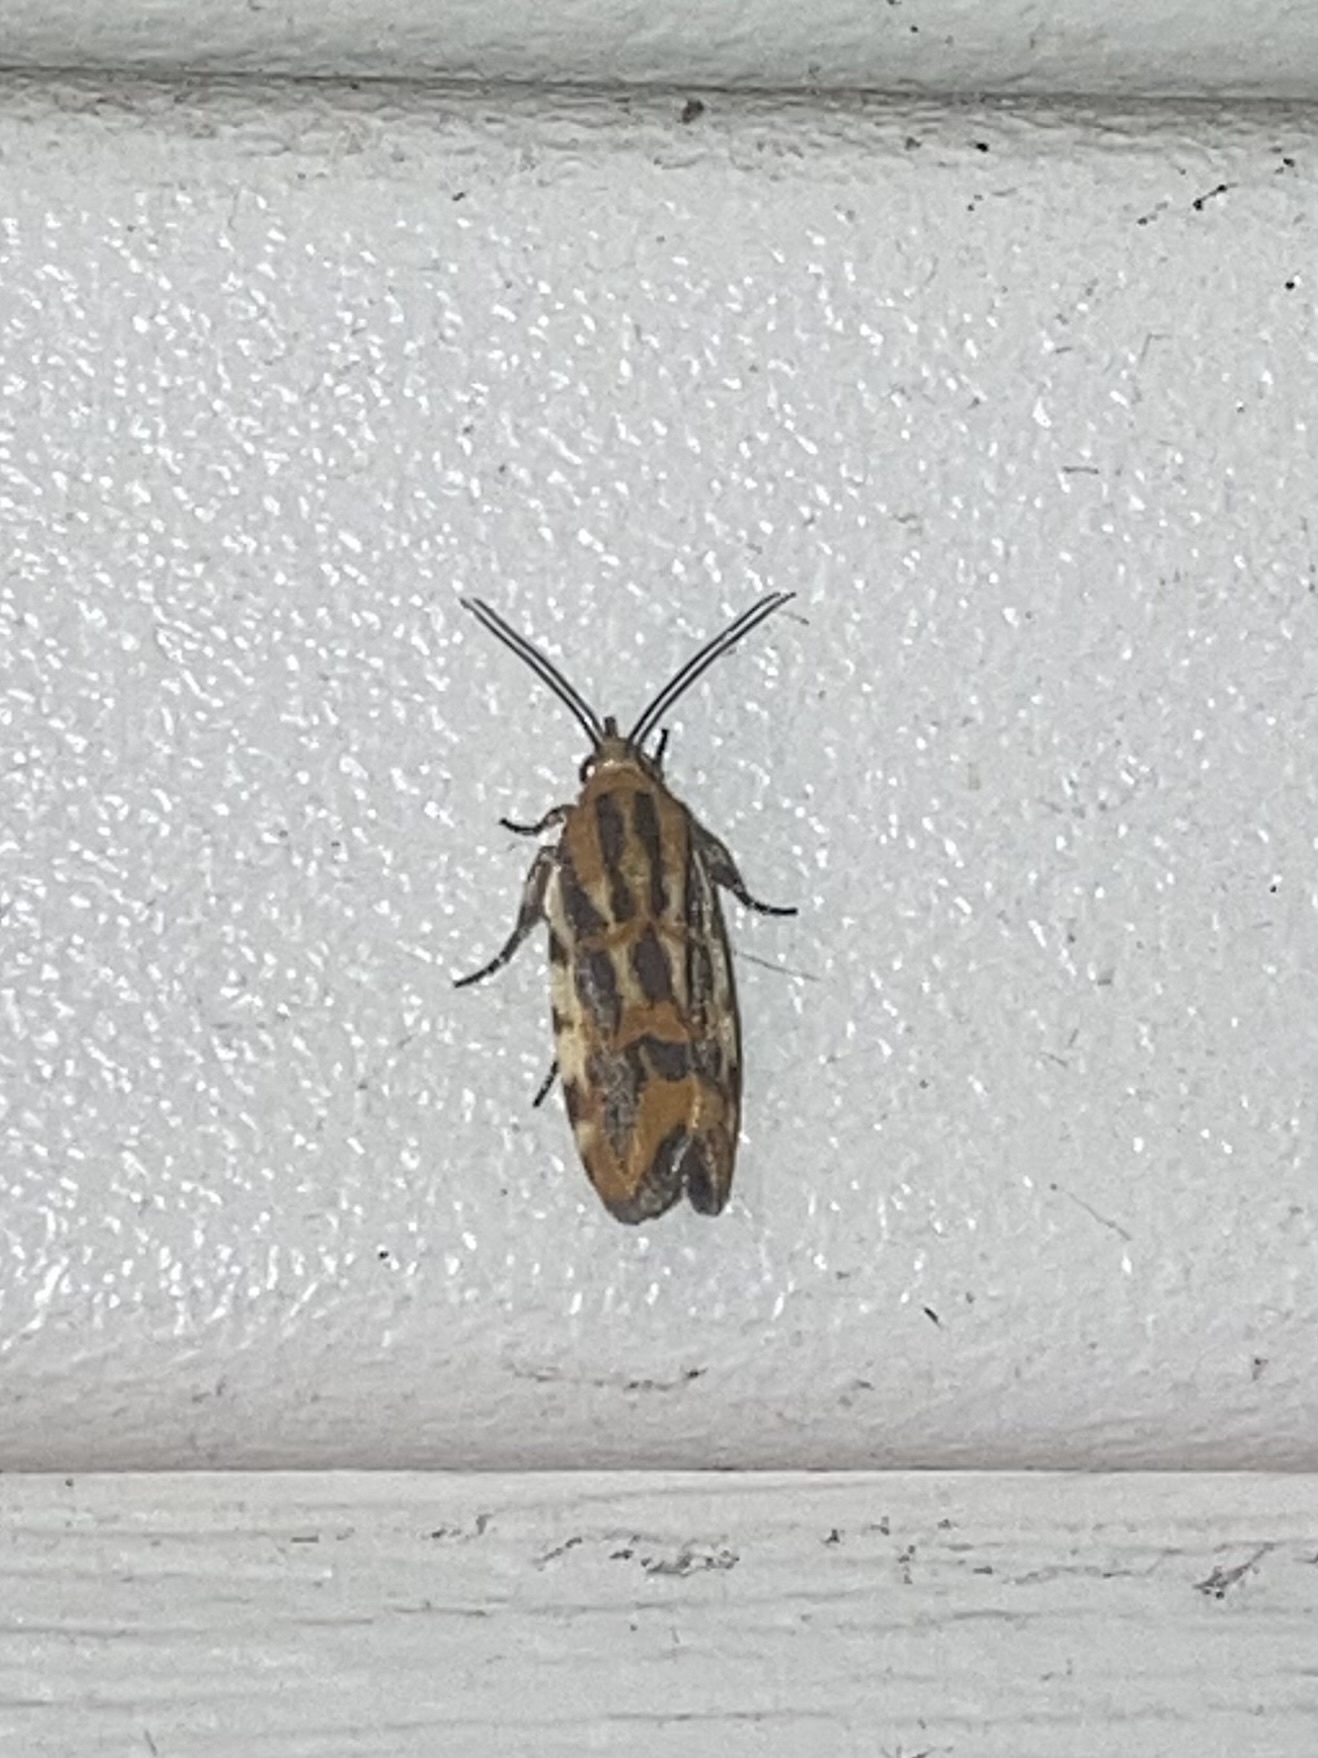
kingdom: Animalia
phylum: Arthropoda
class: Insecta
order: Lepidoptera
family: Noctuidae
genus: Acontia
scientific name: Acontia leo
